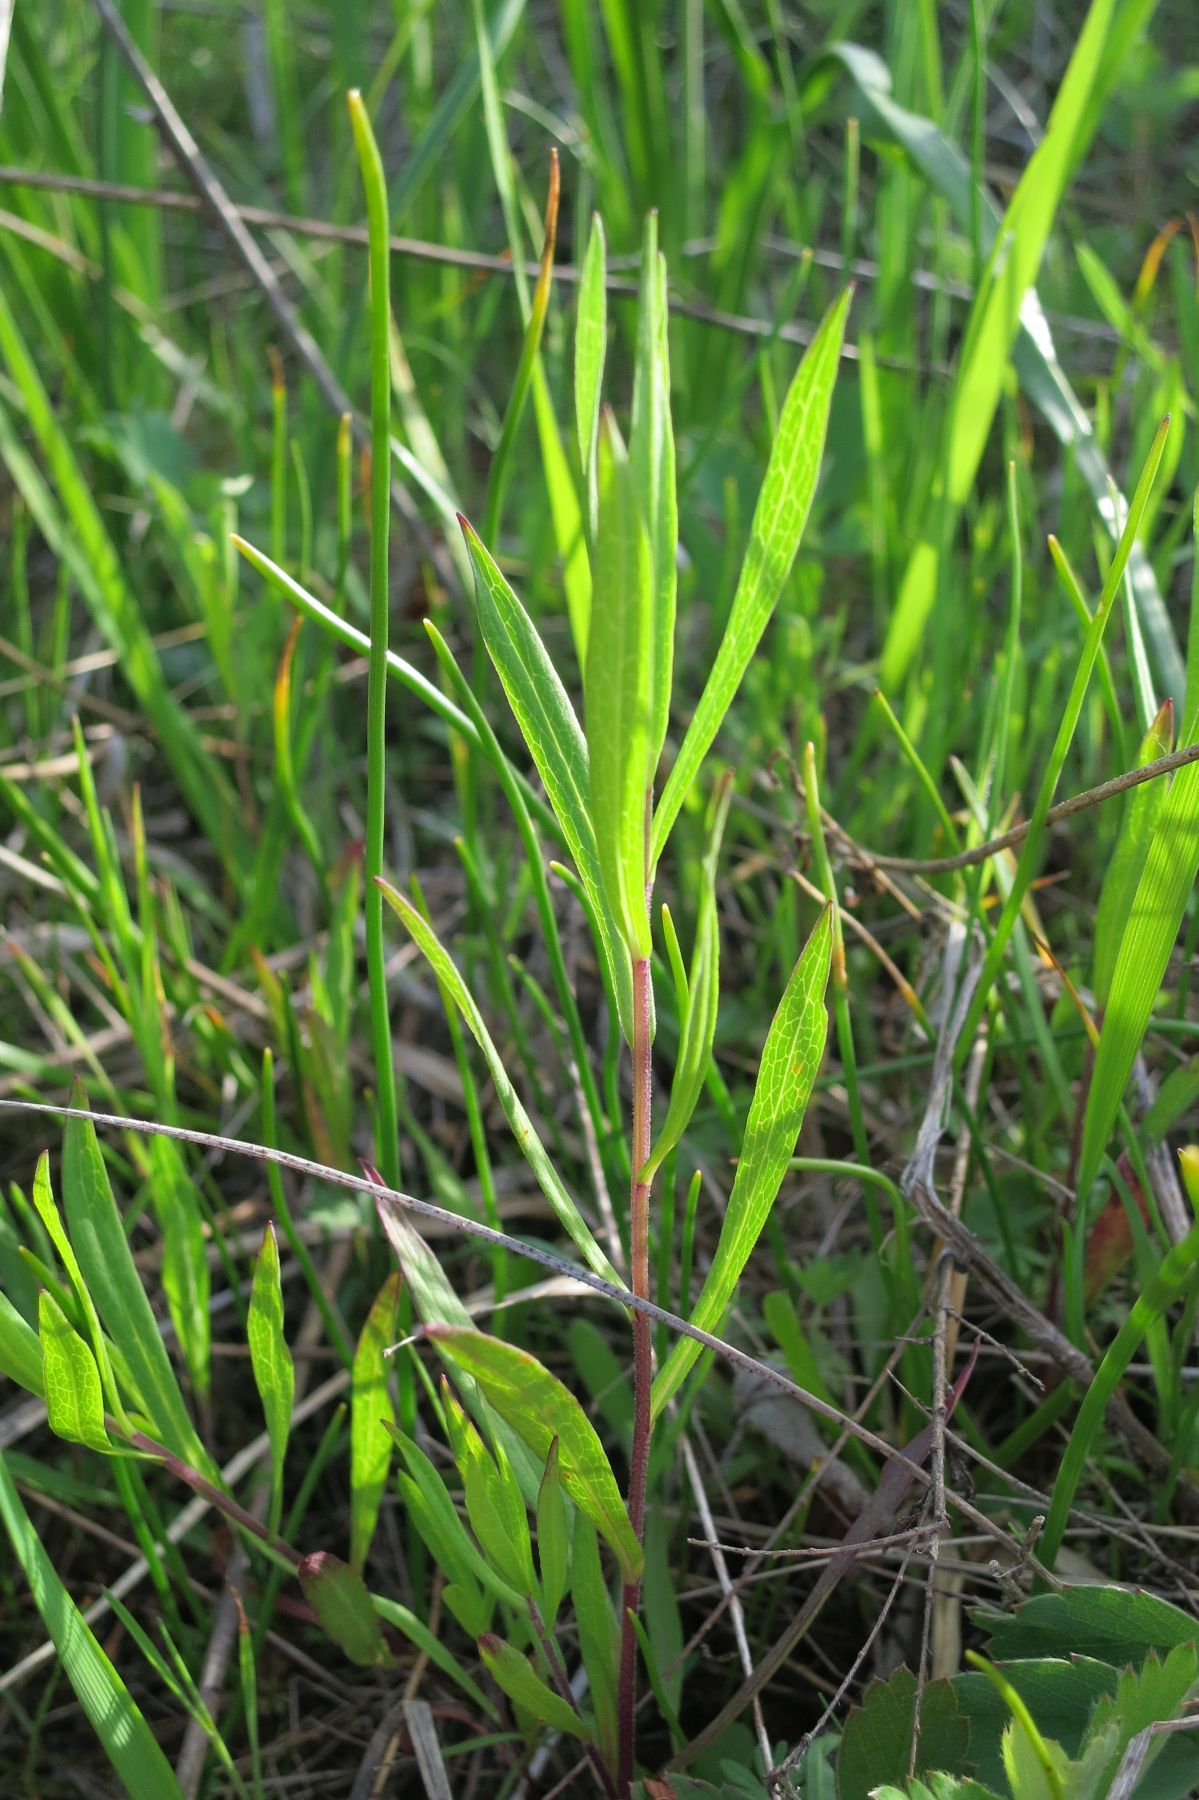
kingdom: Plantae
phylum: Tracheophyta
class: Magnoliopsida
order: Asterales
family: Asteraceae
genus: Symphyotrichum
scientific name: Symphyotrichum hallii
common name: Hall's aster
